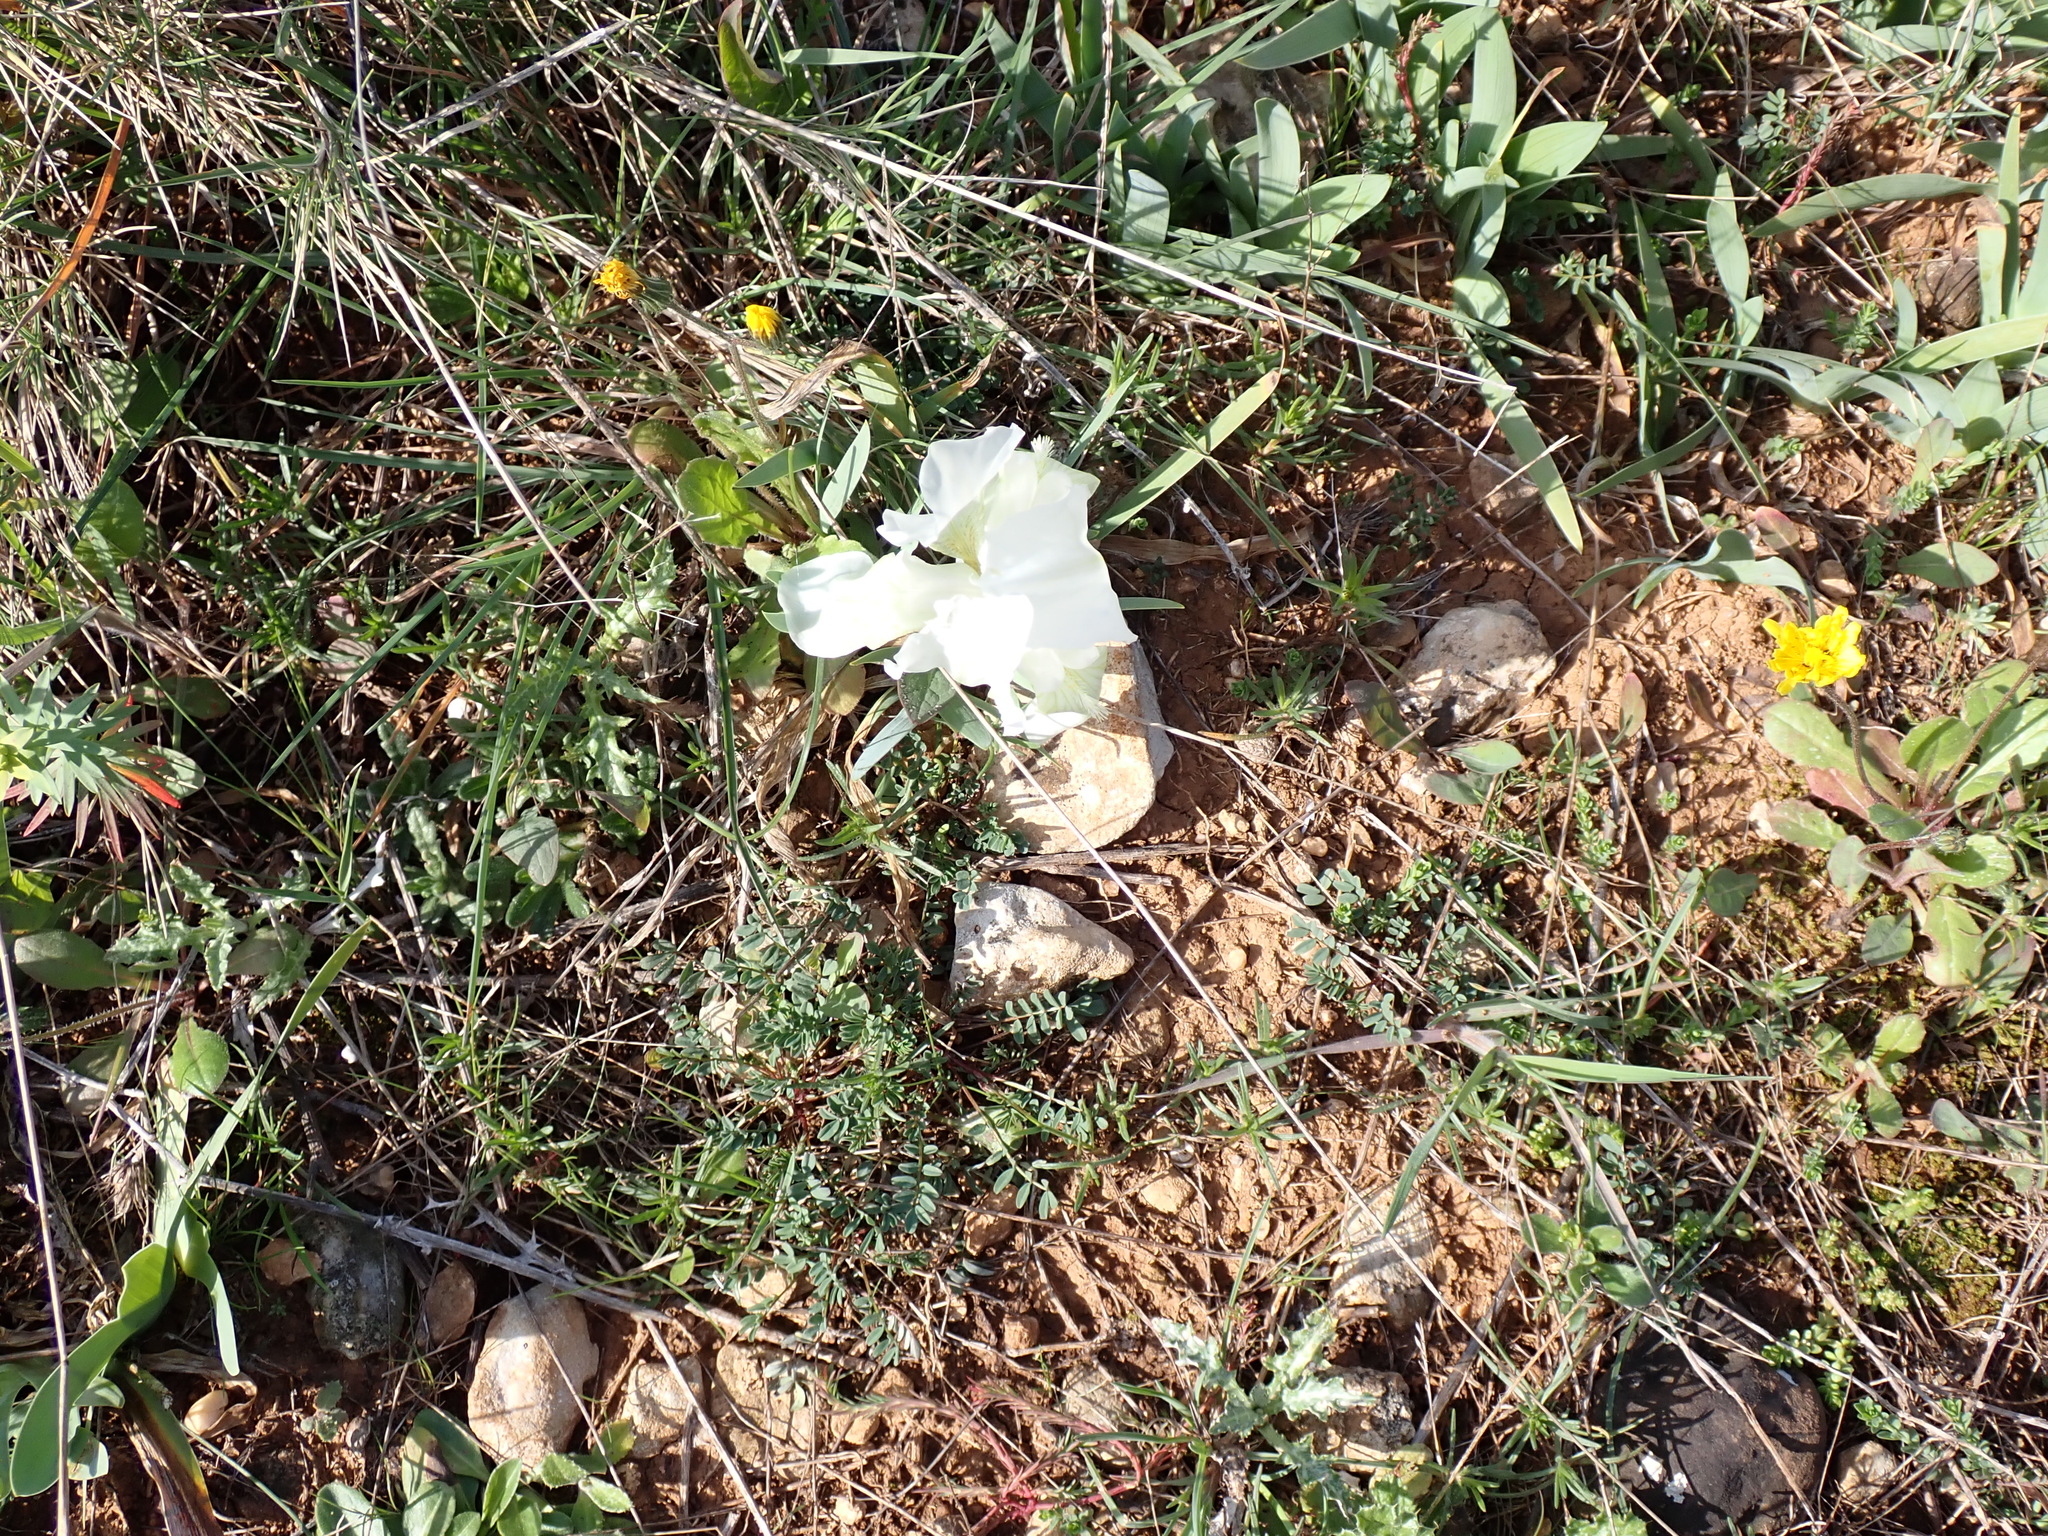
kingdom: Plantae
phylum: Tracheophyta
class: Liliopsida
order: Asparagales
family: Iridaceae
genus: Iris
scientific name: Iris lutescens
